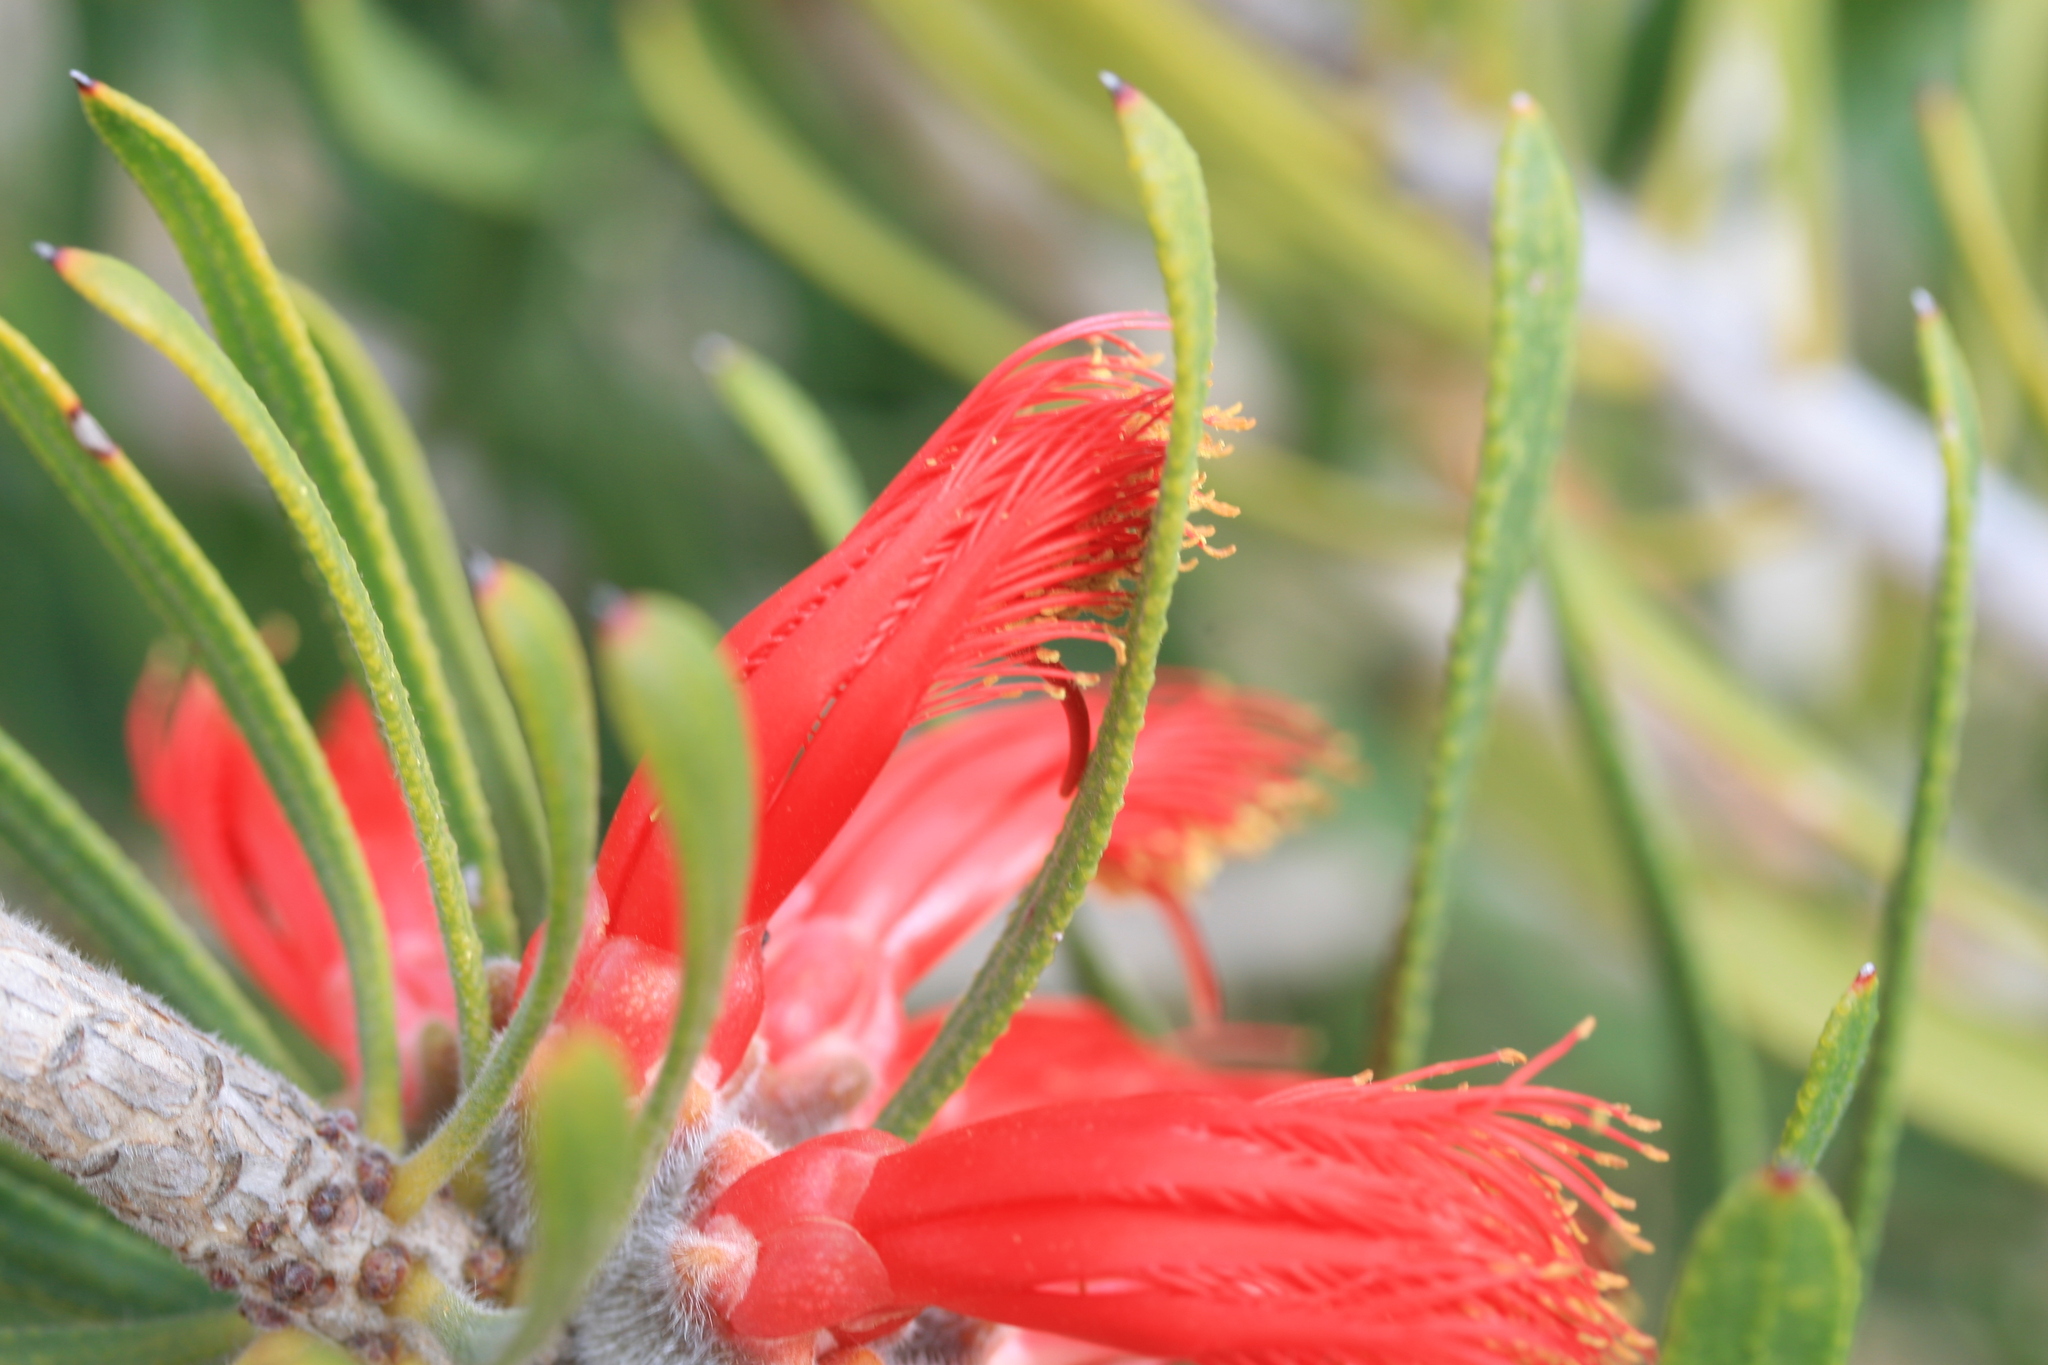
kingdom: Plantae
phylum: Tracheophyta
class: Magnoliopsida
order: Myrtales
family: Myrtaceae
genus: Melaleuca
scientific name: Melaleuca blepharosperma
